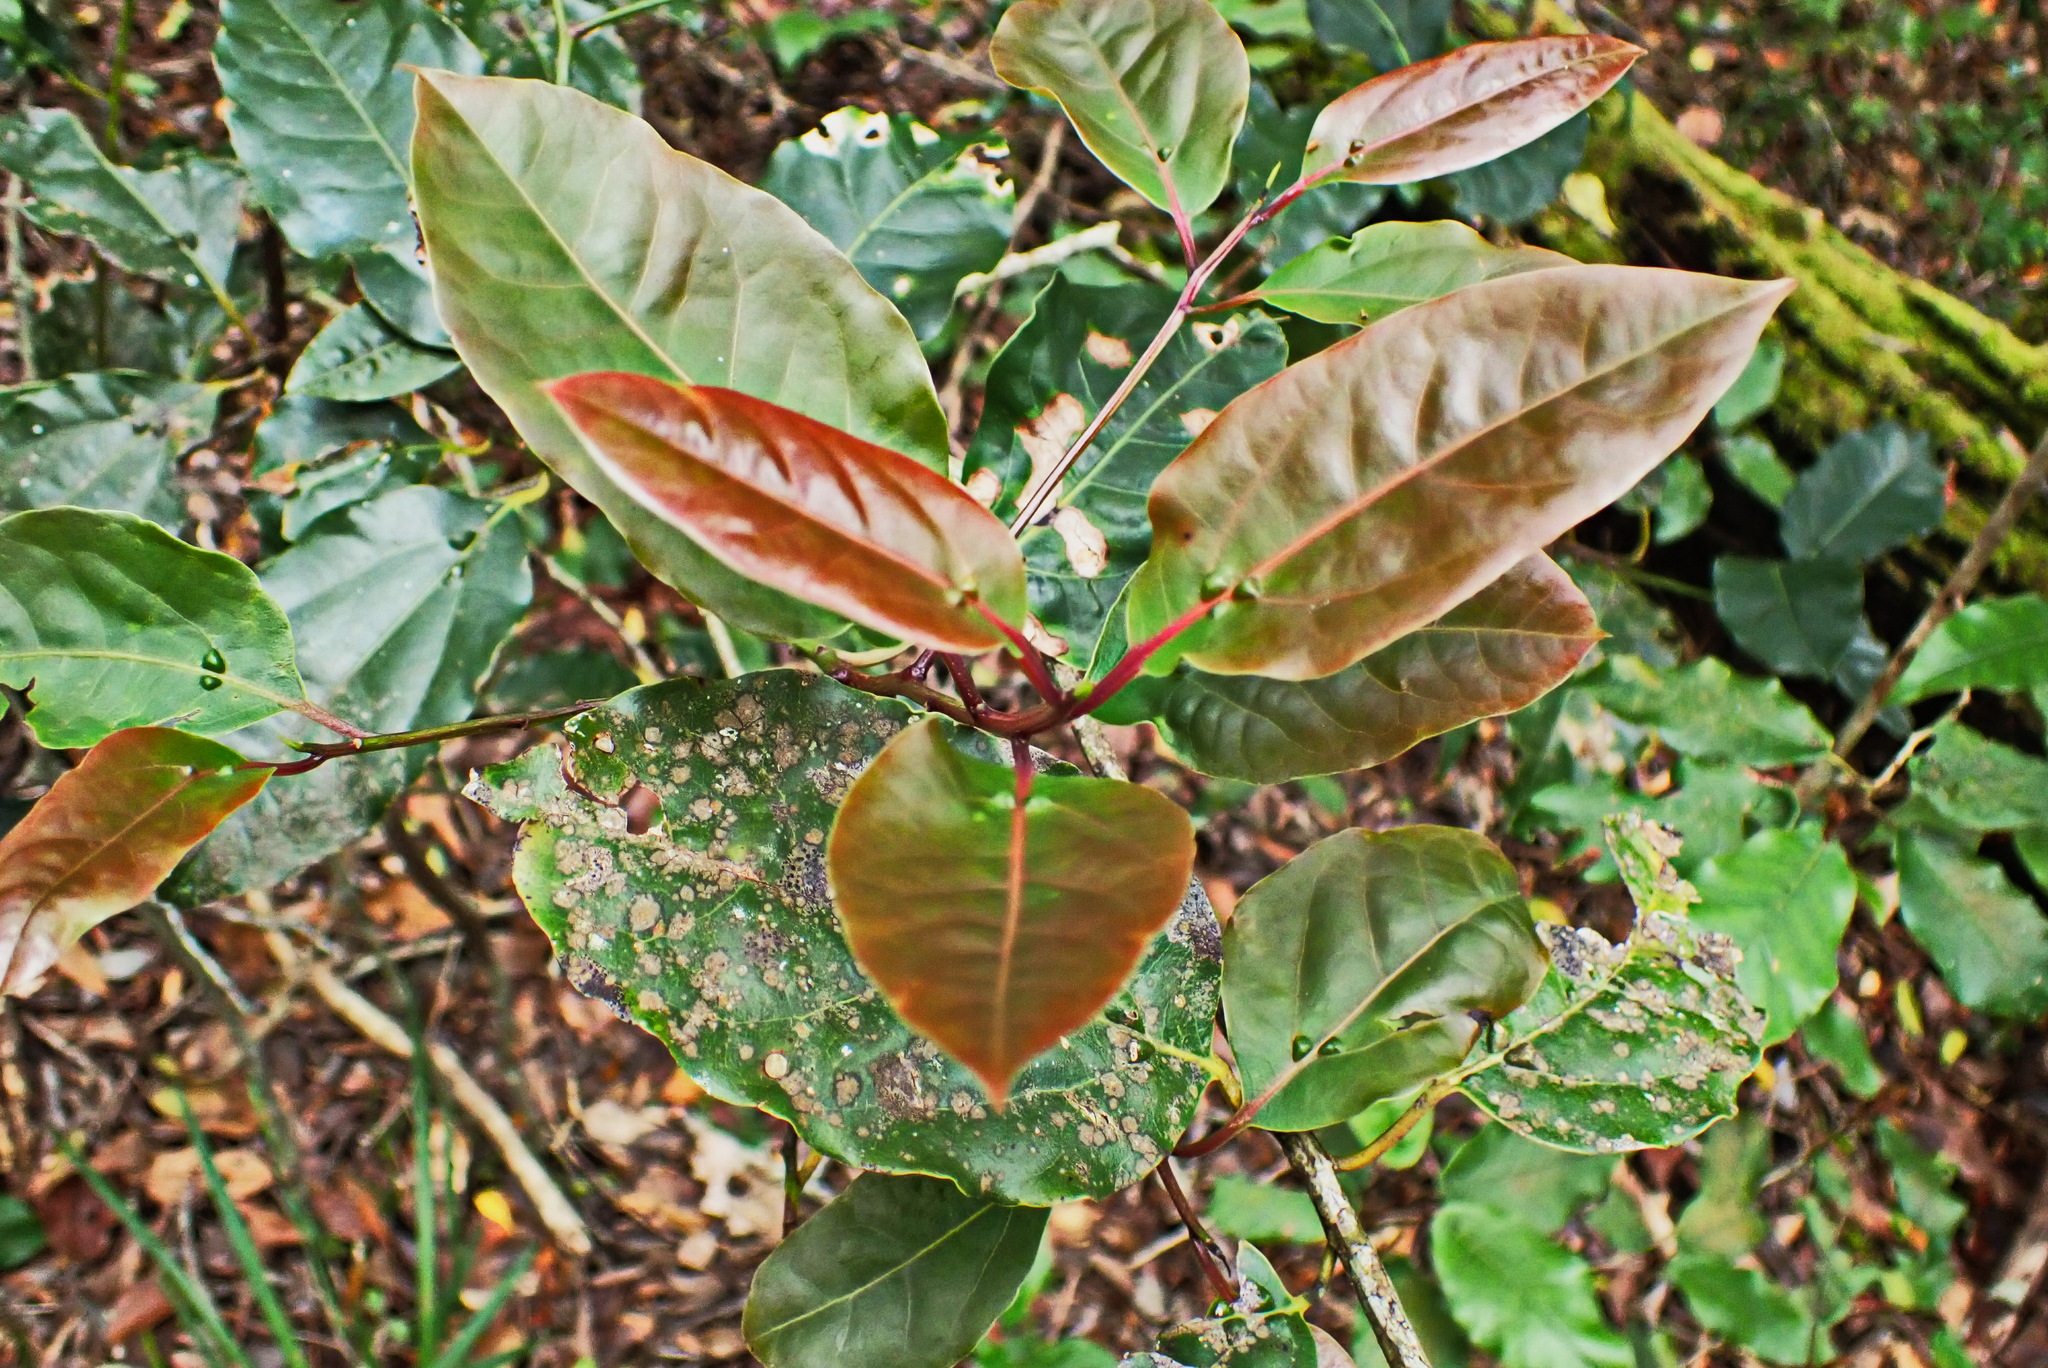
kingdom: Plantae
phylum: Tracheophyta
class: Magnoliopsida
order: Laurales
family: Lauraceae
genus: Ocotea
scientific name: Ocotea bullata
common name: Black stinkwood
